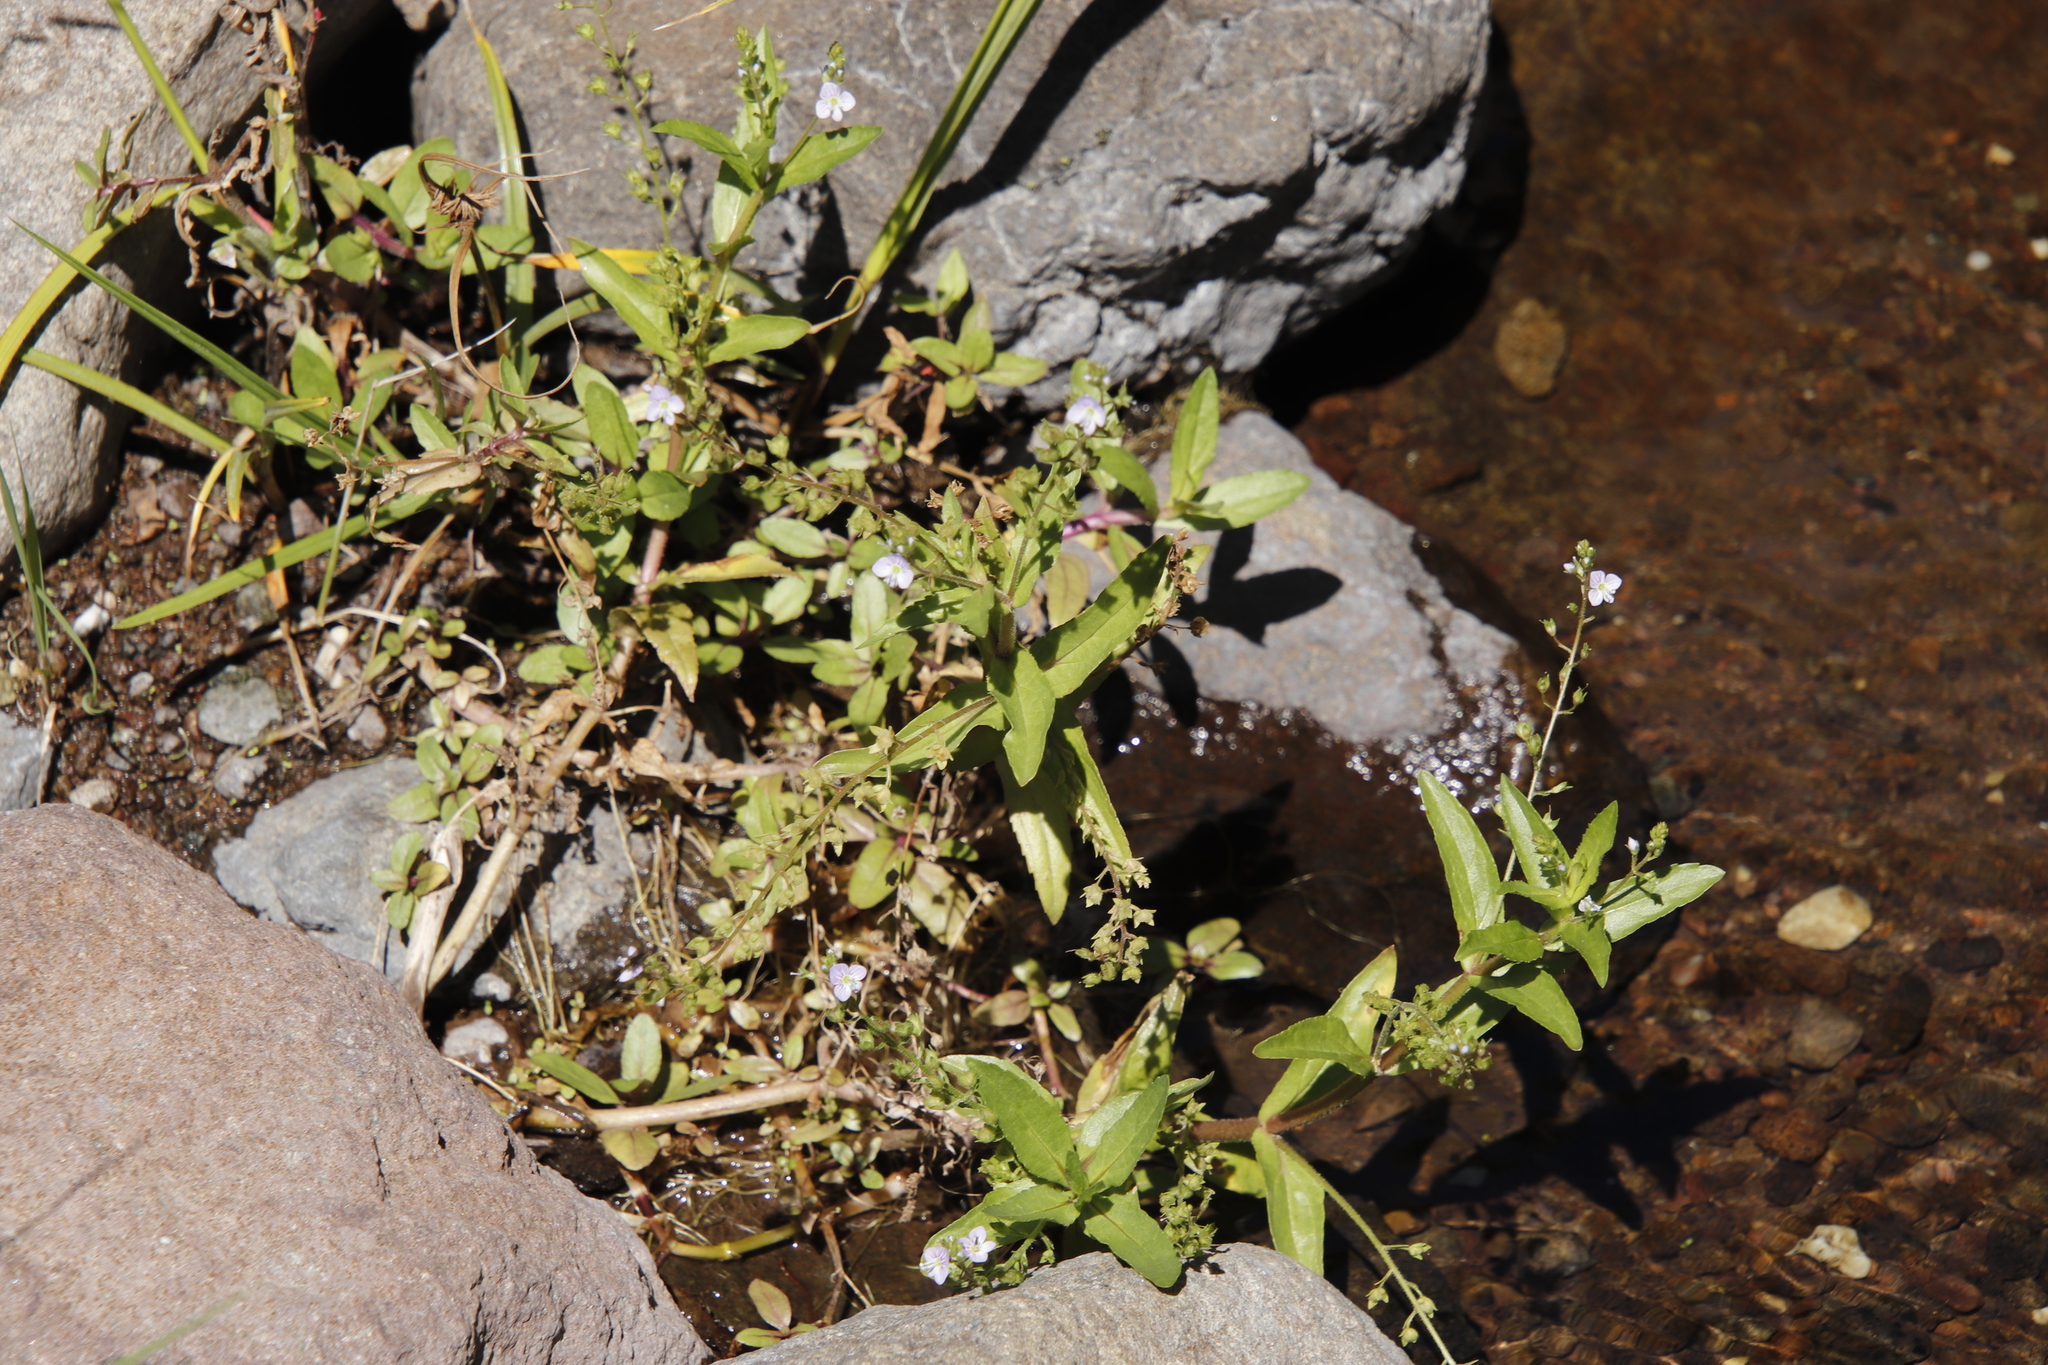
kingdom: Plantae
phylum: Tracheophyta
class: Magnoliopsida
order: Lamiales
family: Plantaginaceae
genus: Veronica
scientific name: Veronica anagallis-aquatica
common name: Water speedwell
